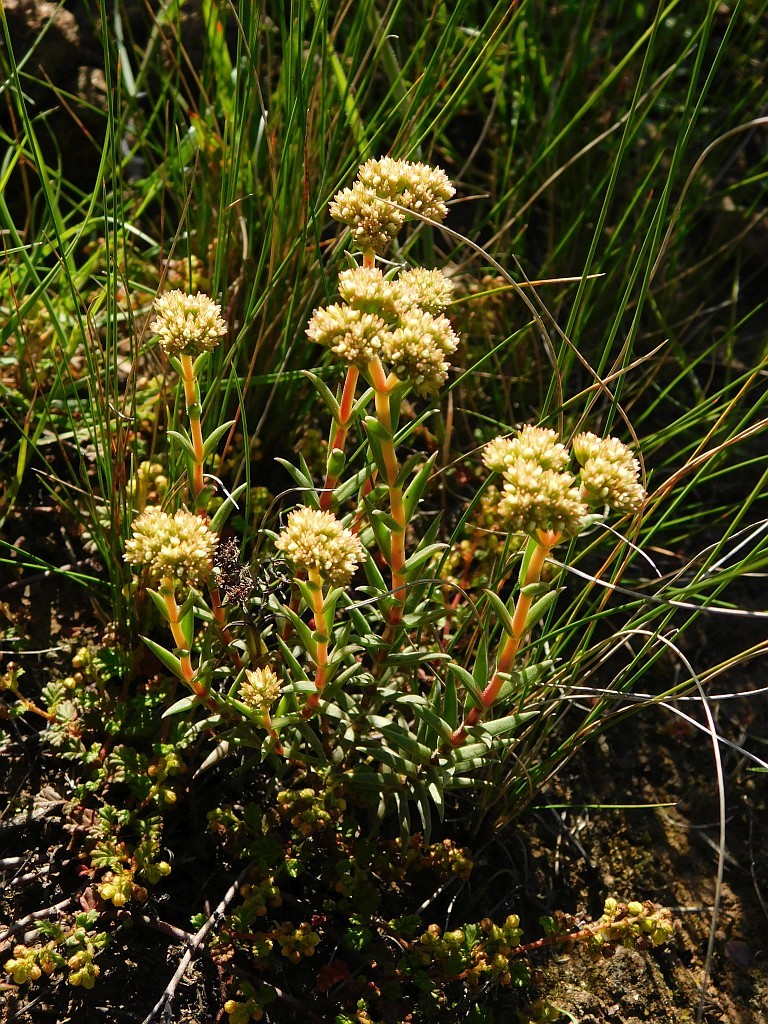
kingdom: Plantae
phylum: Tracheophyta
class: Magnoliopsida
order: Saxifragales
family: Crassulaceae
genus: Crassula
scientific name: Crassula subulata
